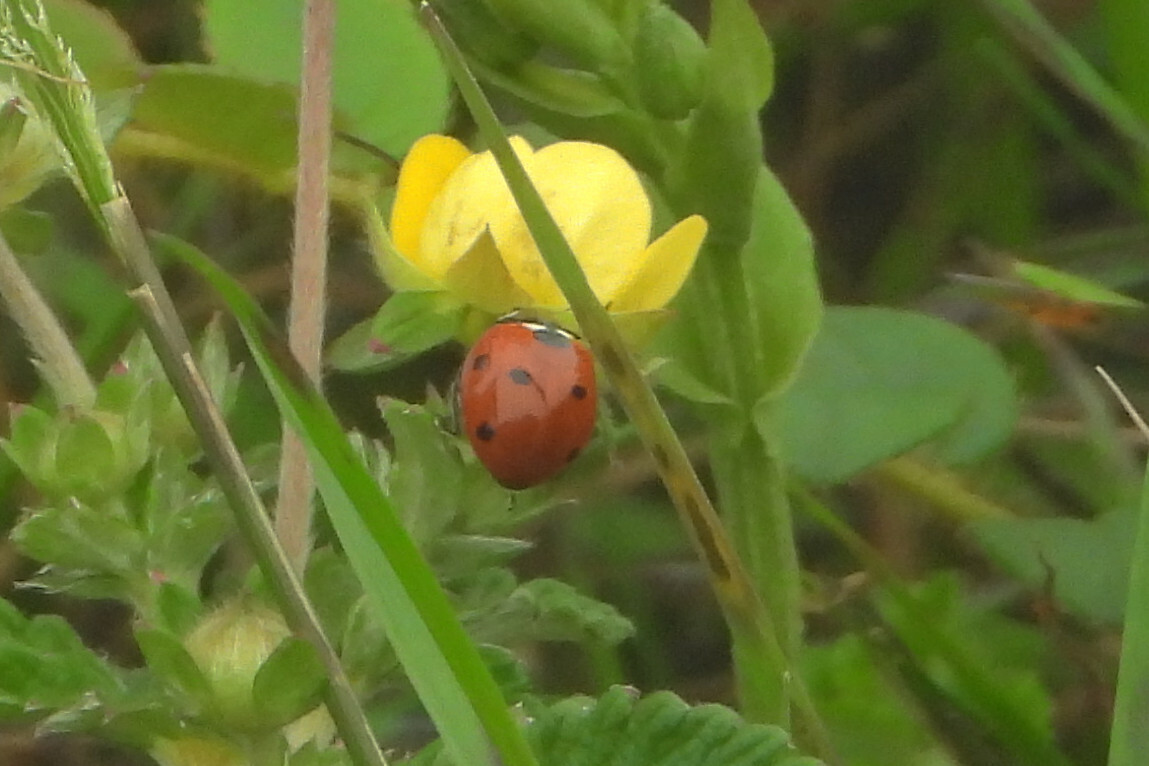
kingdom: Animalia
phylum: Arthropoda
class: Insecta
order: Coleoptera
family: Coccinellidae
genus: Coccinella
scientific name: Coccinella septempunctata
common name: Sevenspotted lady beetle
